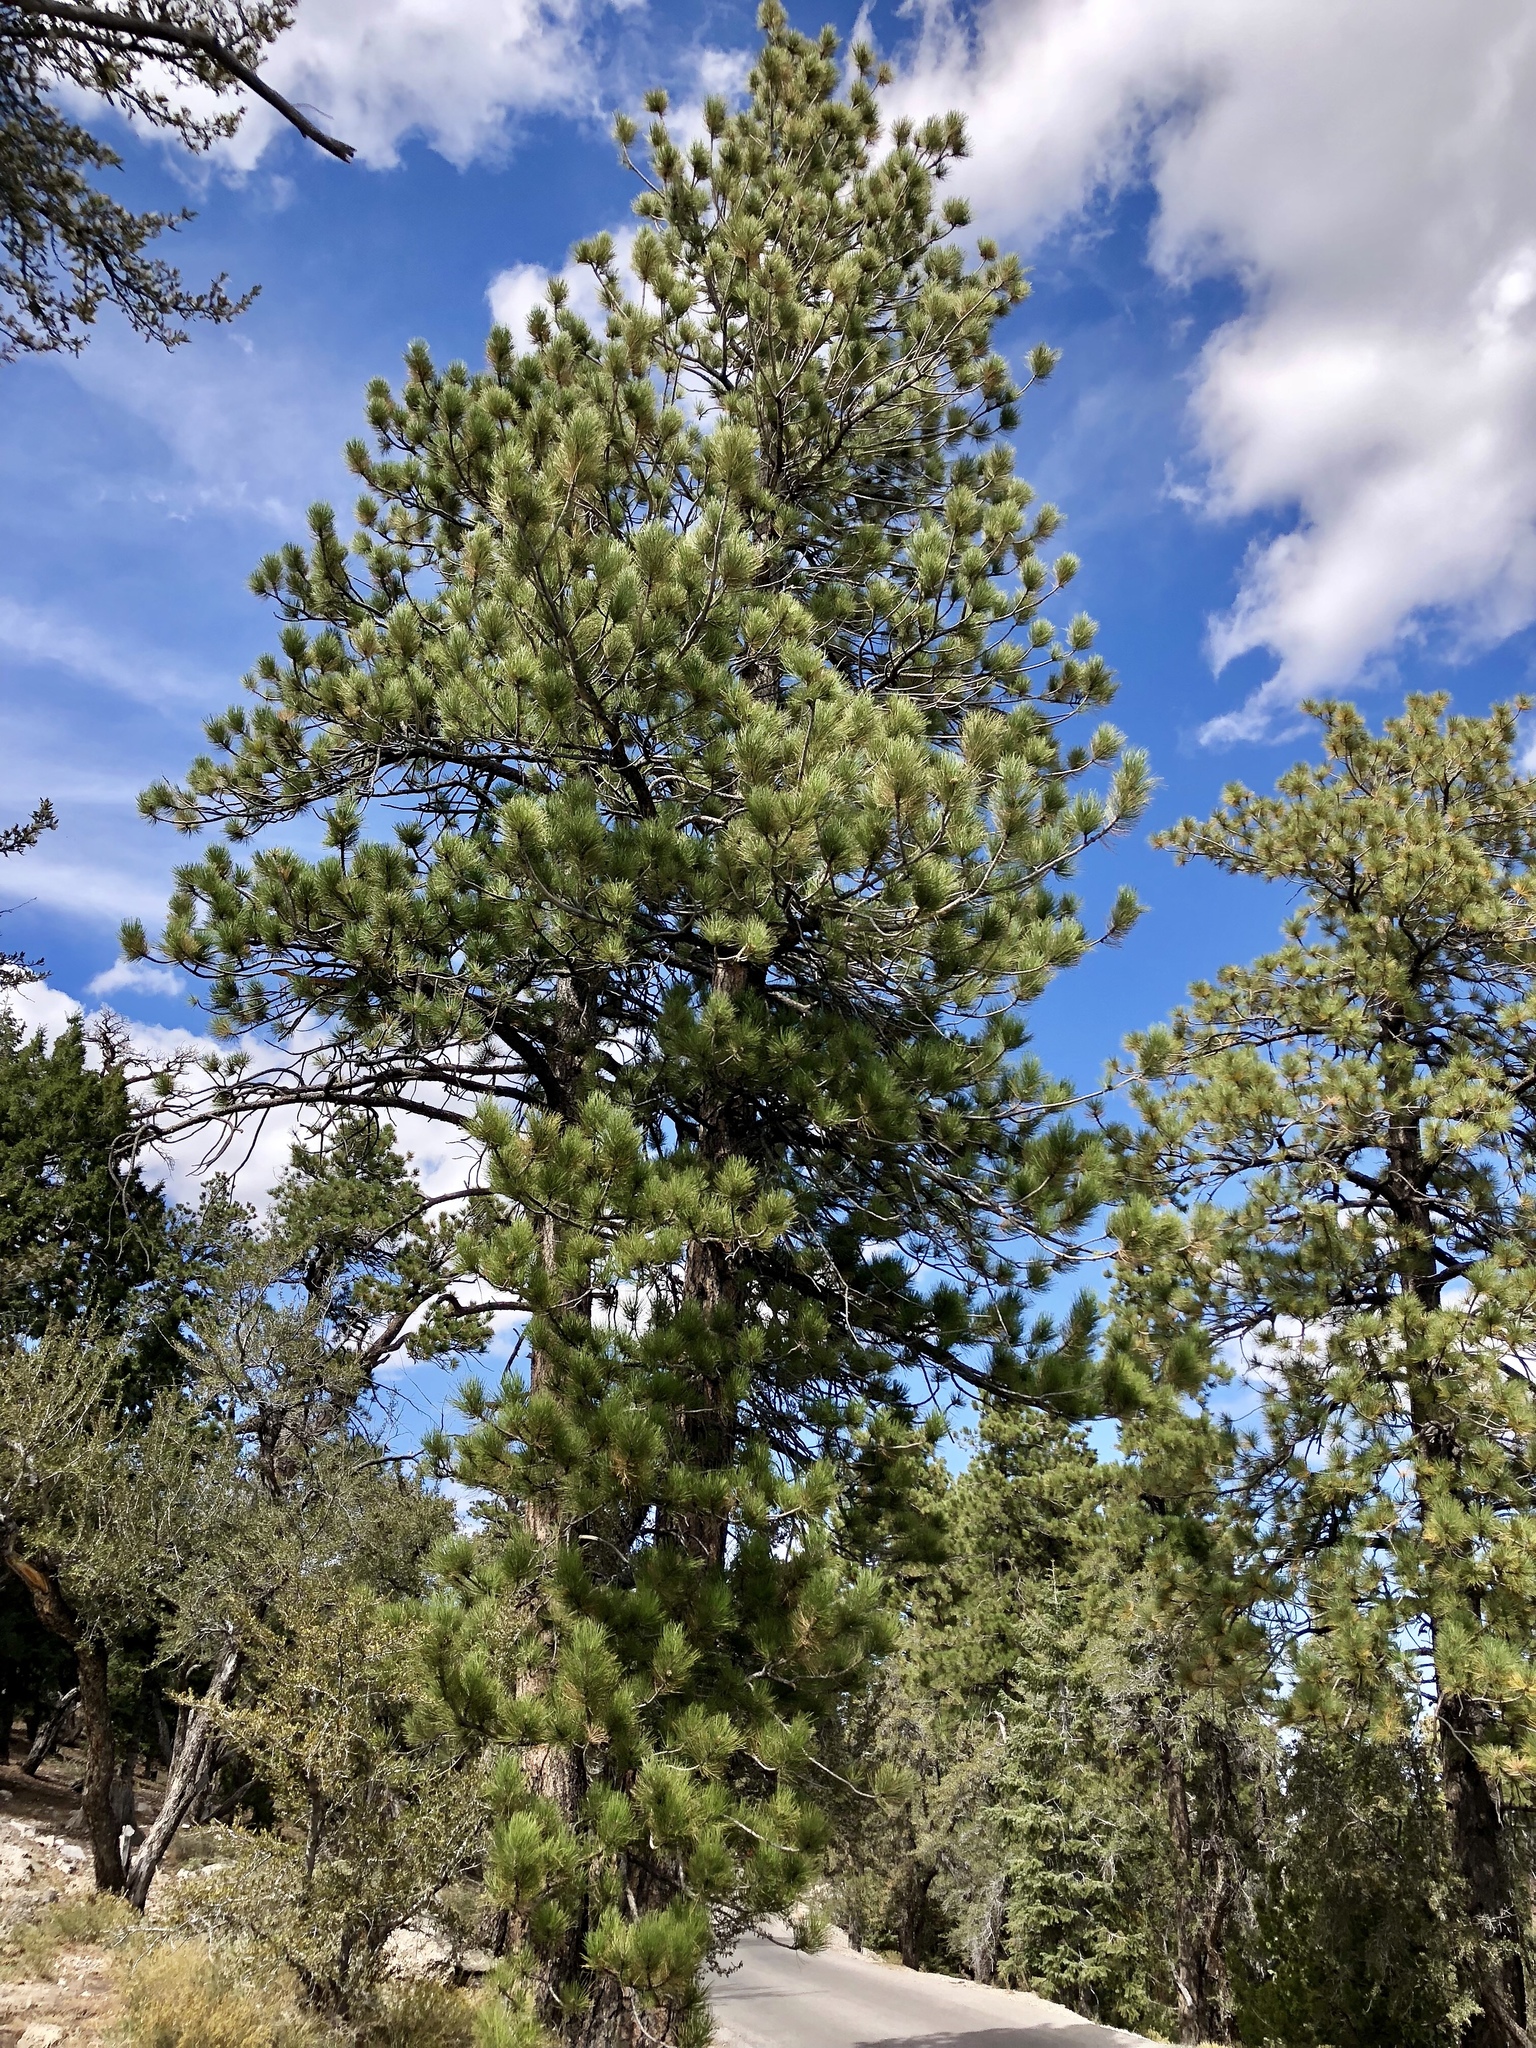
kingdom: Plantae
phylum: Tracheophyta
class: Pinopsida
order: Pinales
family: Pinaceae
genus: Pinus
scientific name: Pinus ponderosa
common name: Western yellow-pine
